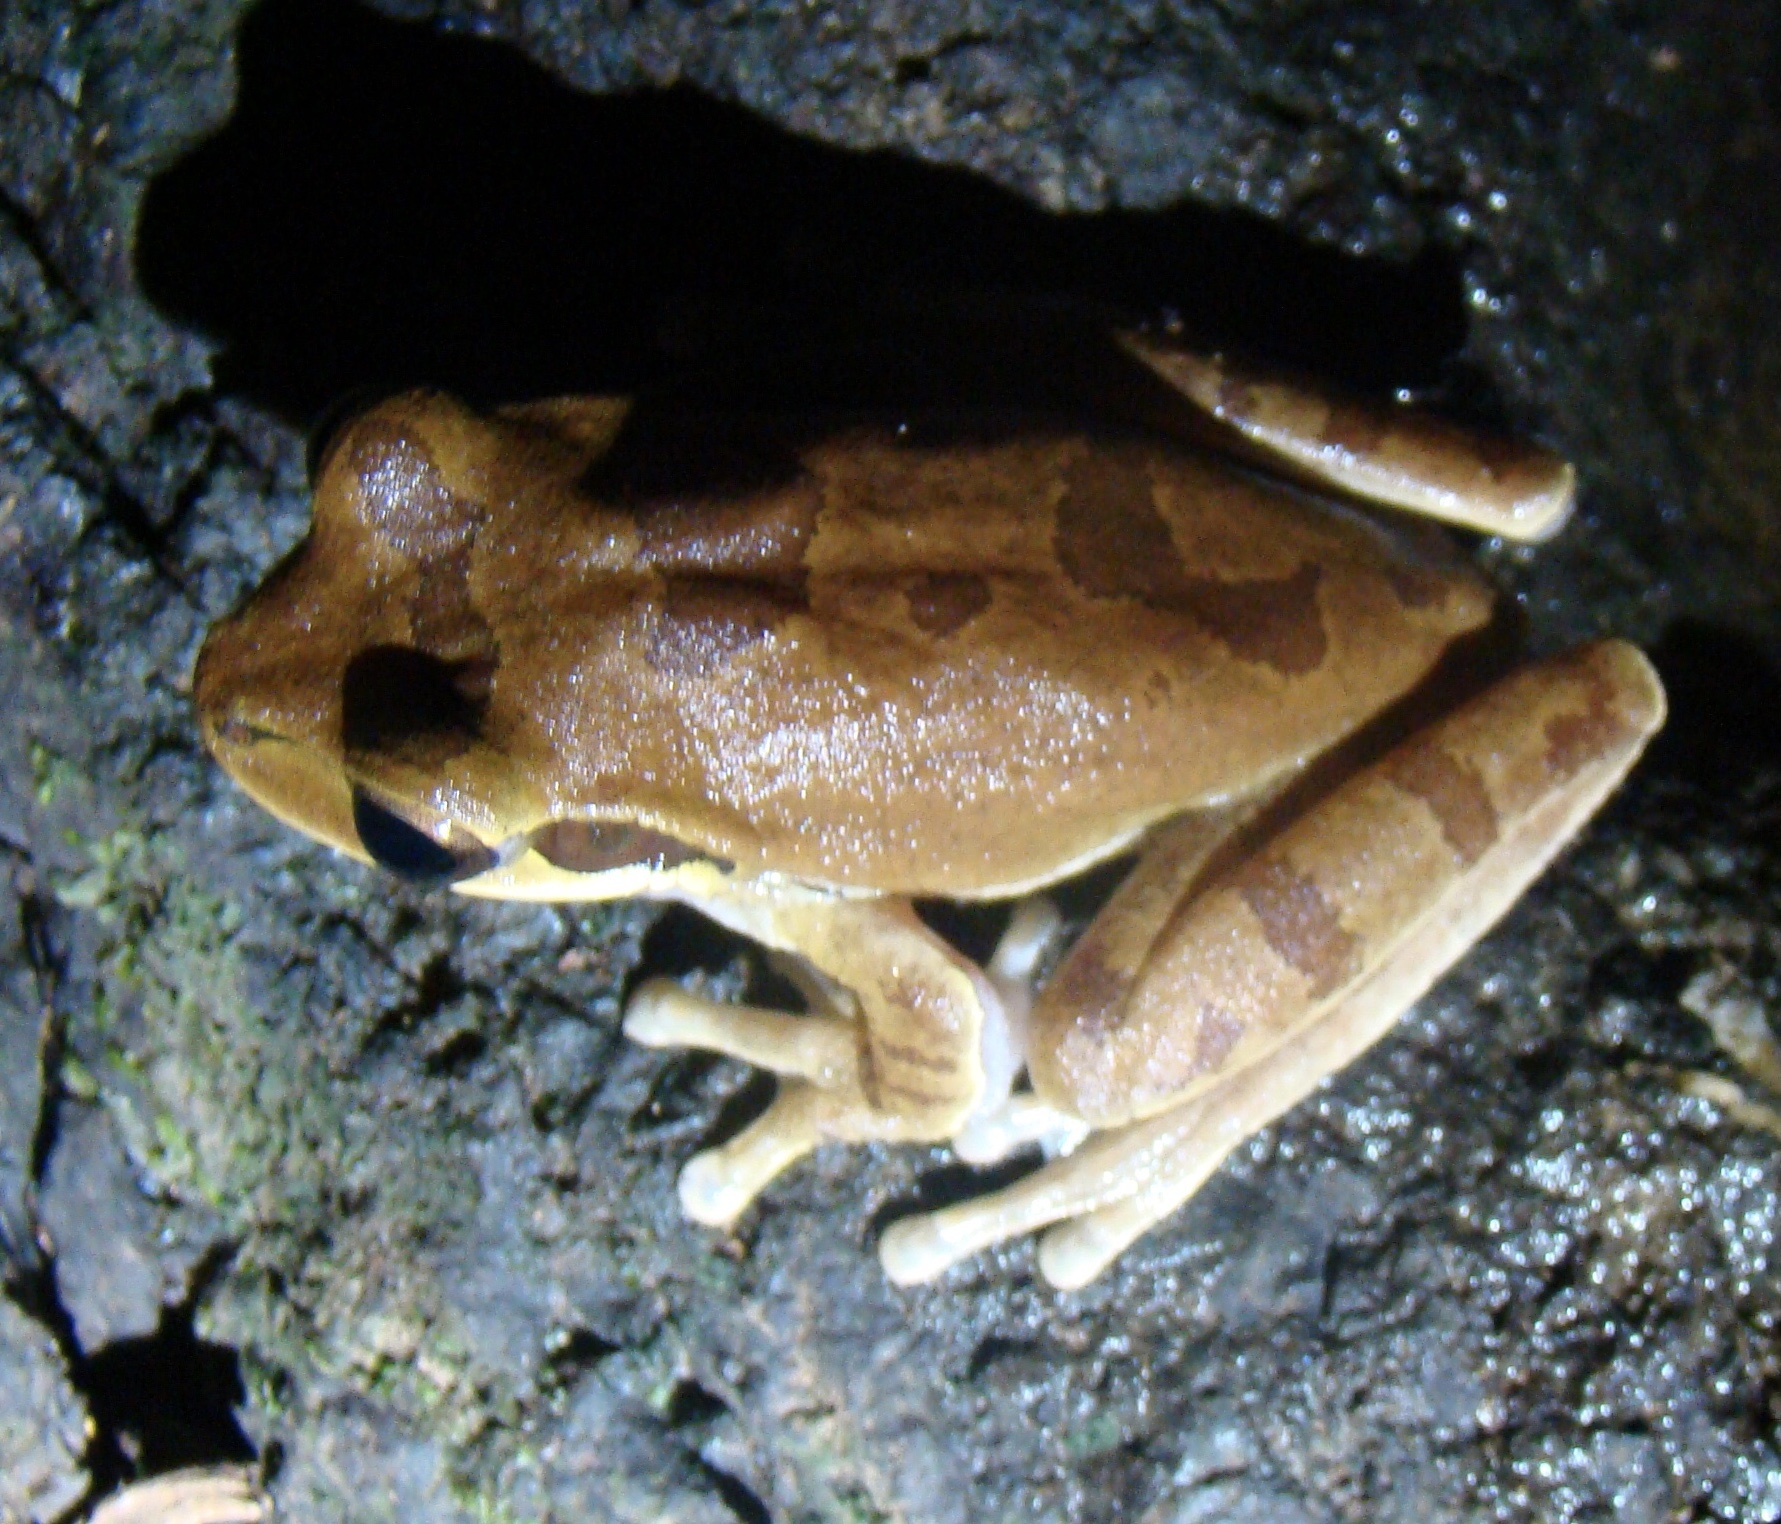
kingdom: Animalia
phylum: Chordata
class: Amphibia
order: Anura
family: Hylidae
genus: Smilisca
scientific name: Smilisca phaeota
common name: Central american smilisca
